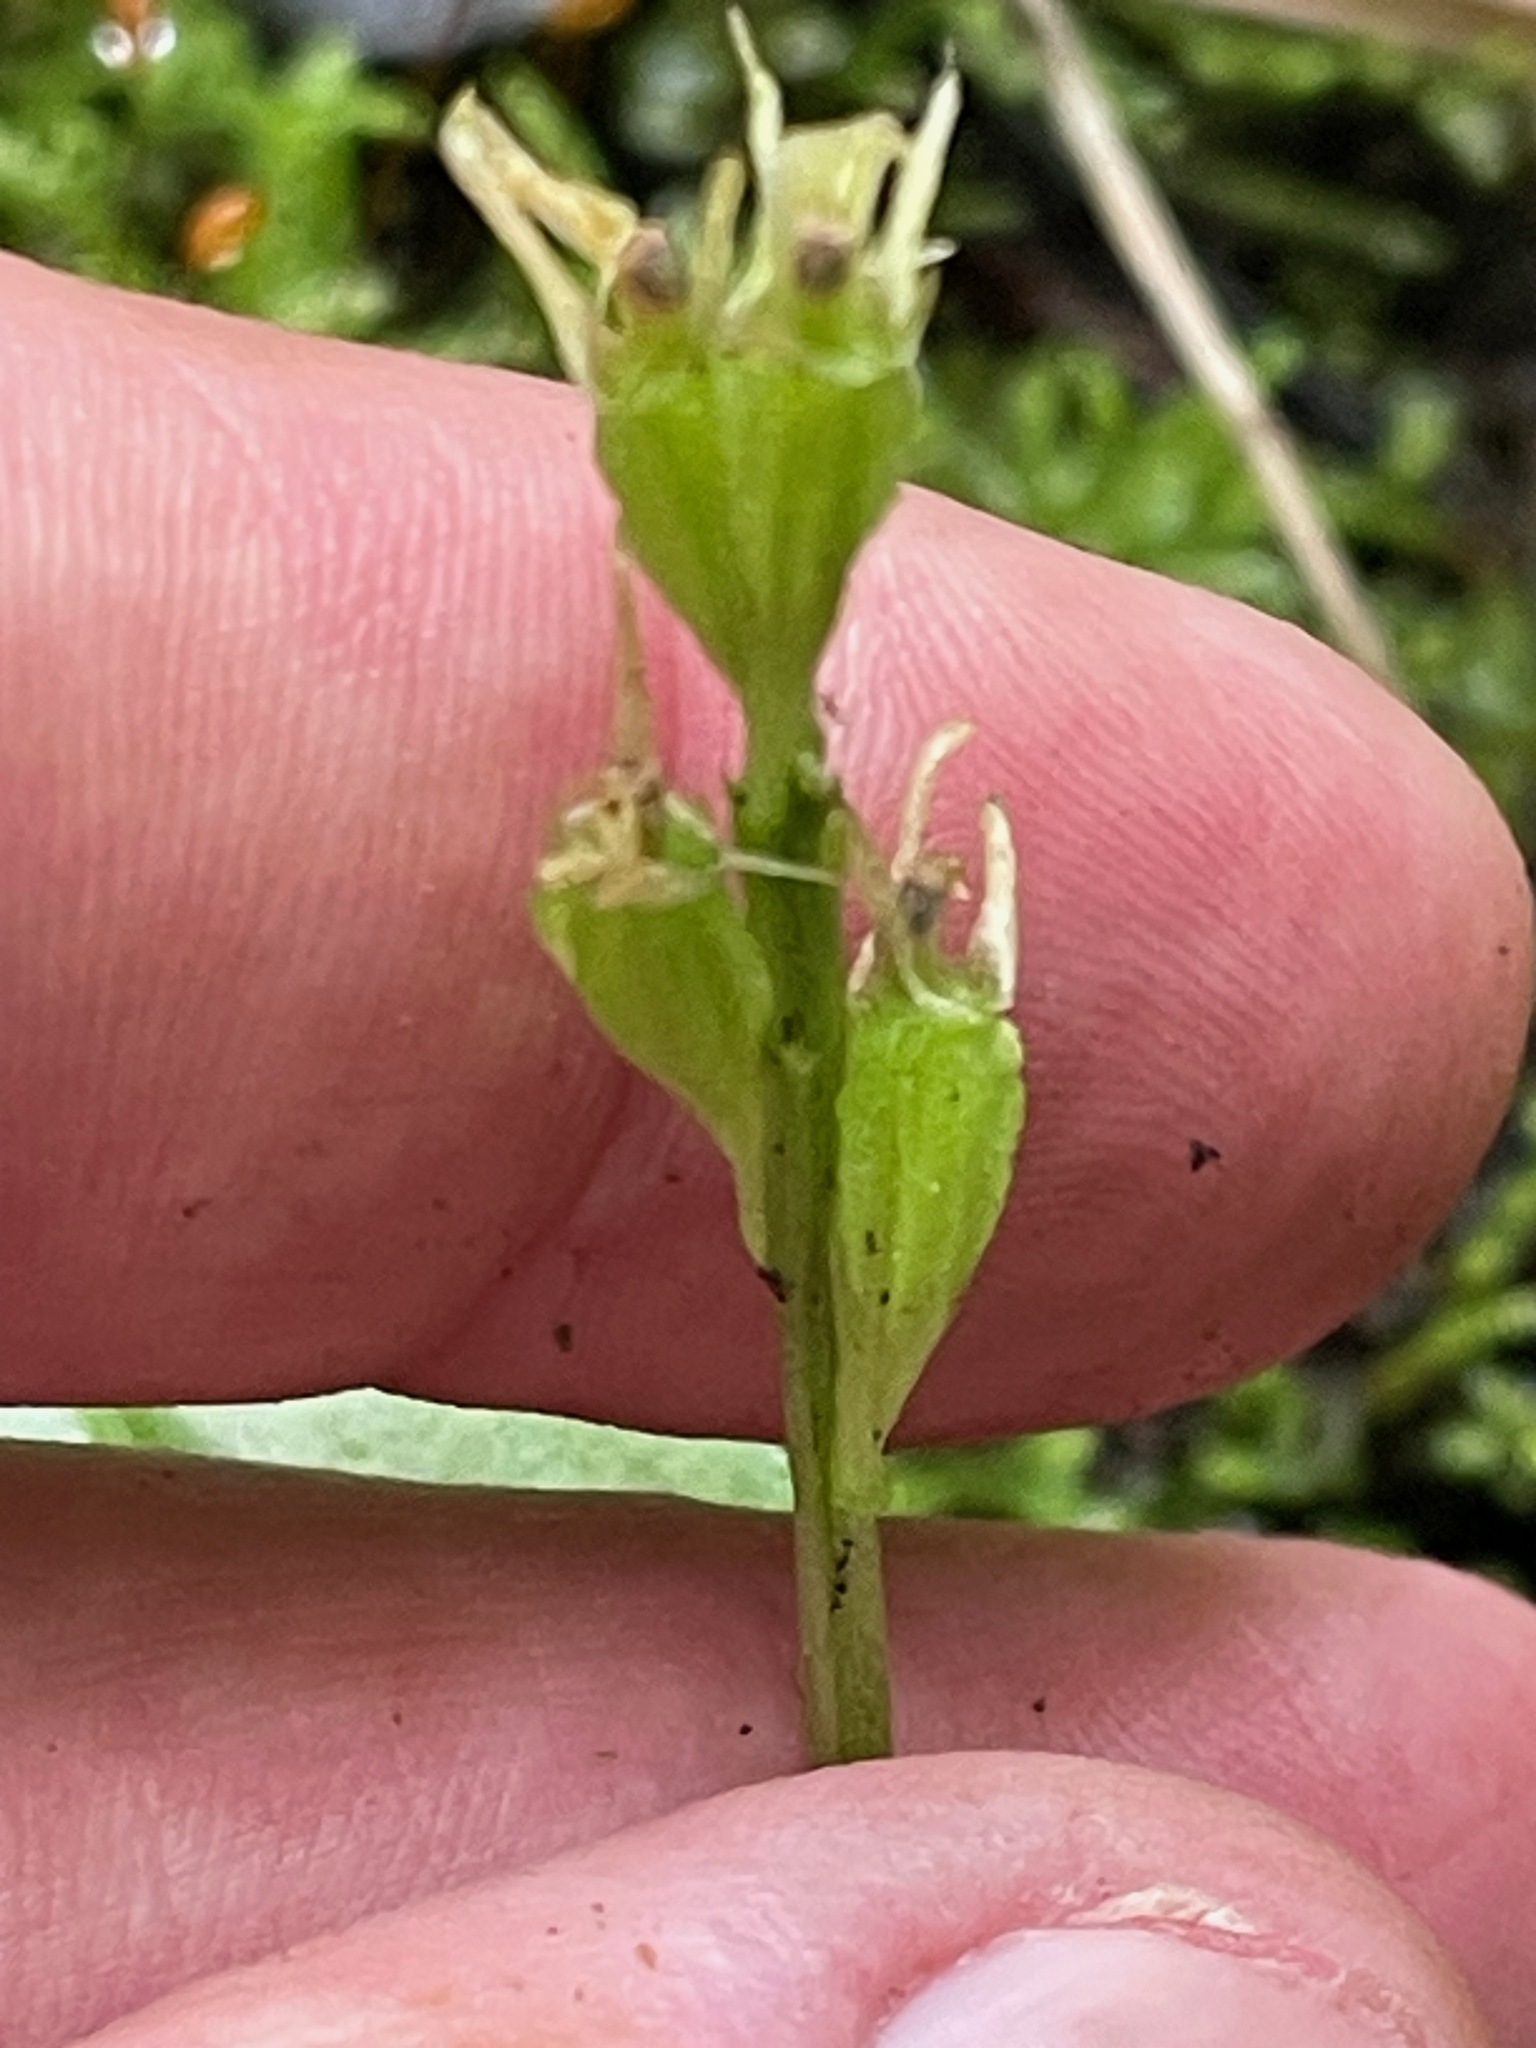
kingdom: Animalia
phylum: Arthropoda
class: Insecta
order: Coleoptera
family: Curculionidae
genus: Liparis
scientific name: Liparis loeselii
